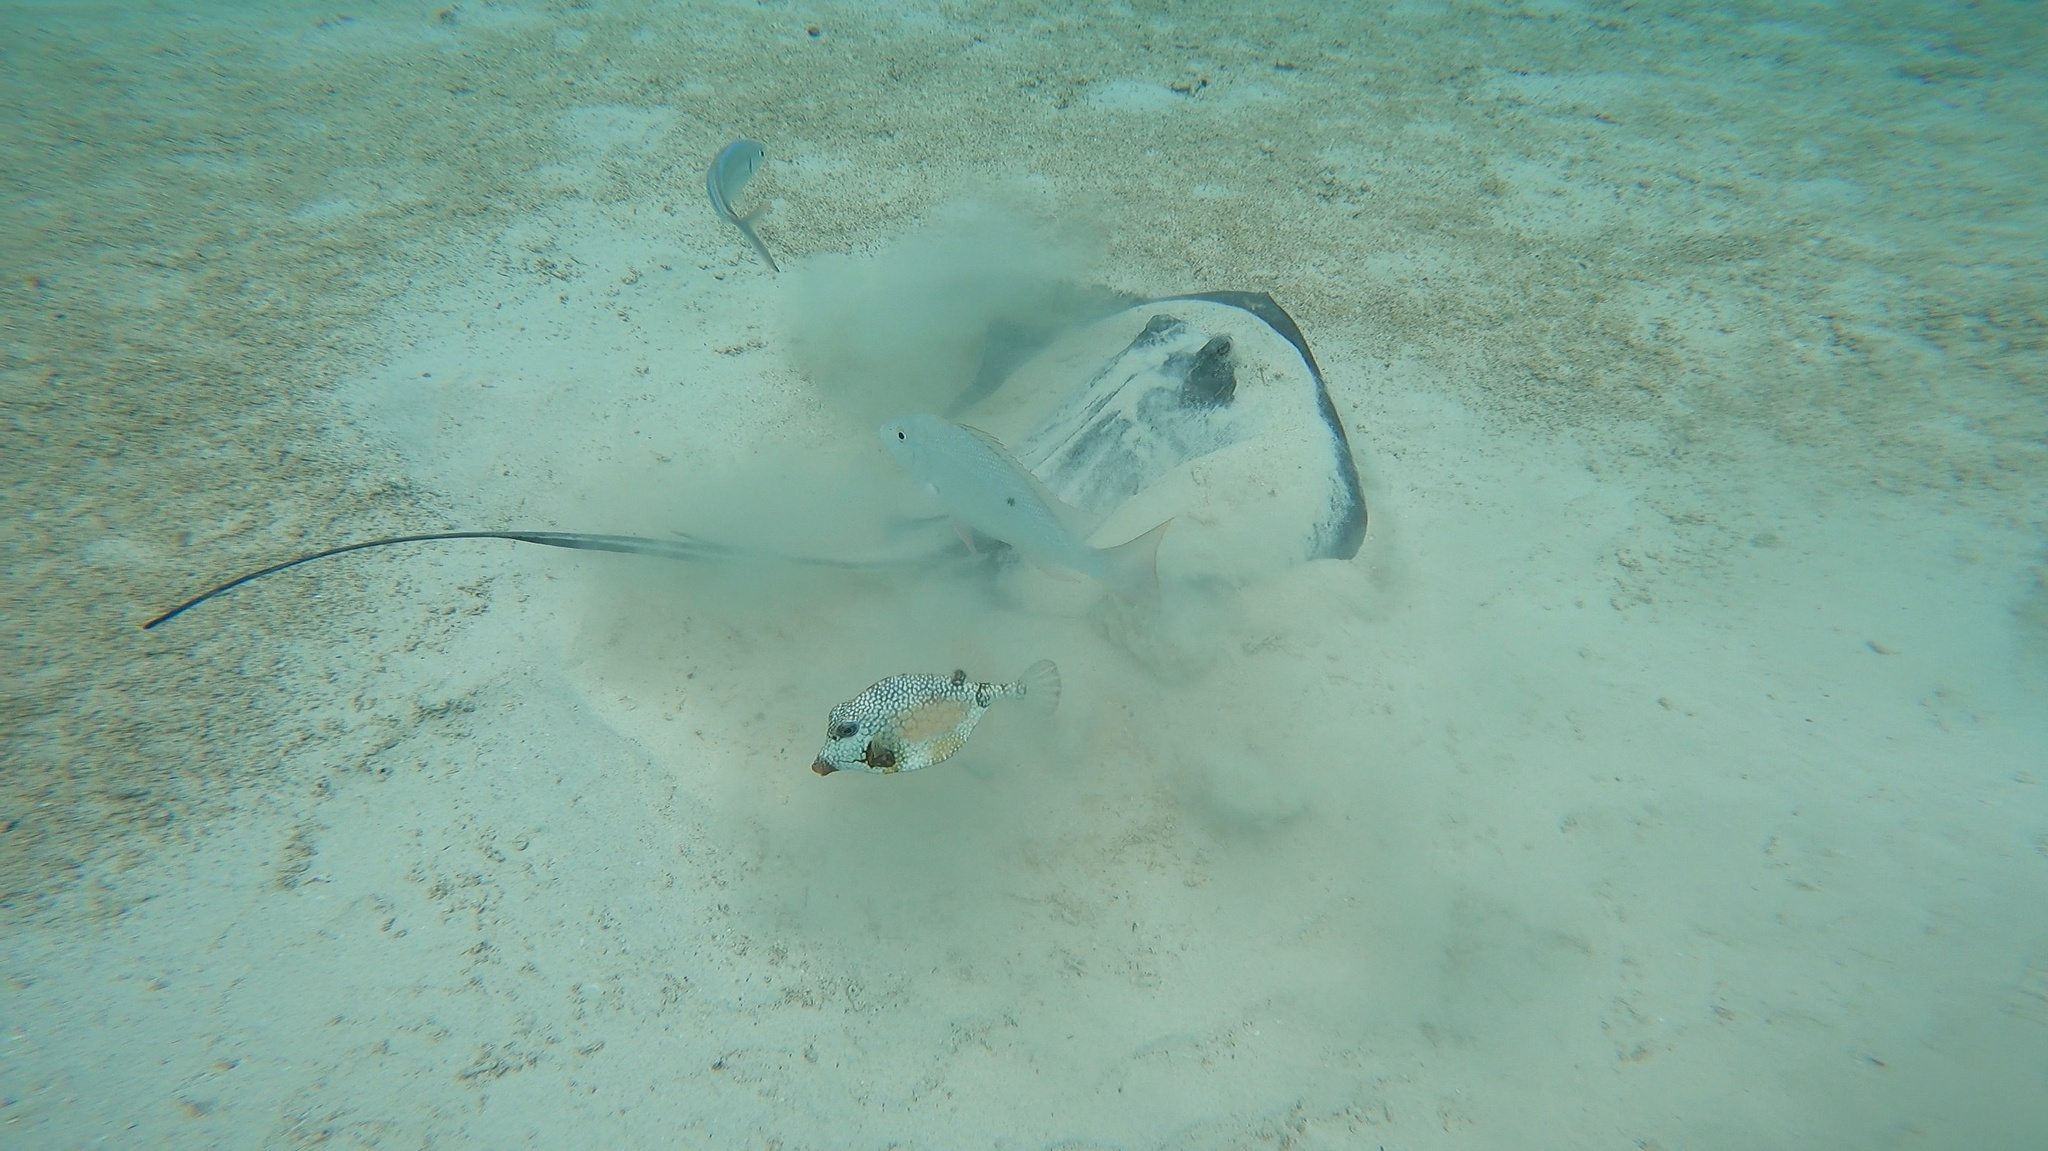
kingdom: Animalia
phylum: Chordata
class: Elasmobranchii
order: Myliobatiformes
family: Dasyatidae
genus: Hypanus
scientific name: Hypanus americanus
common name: Southern stingray
